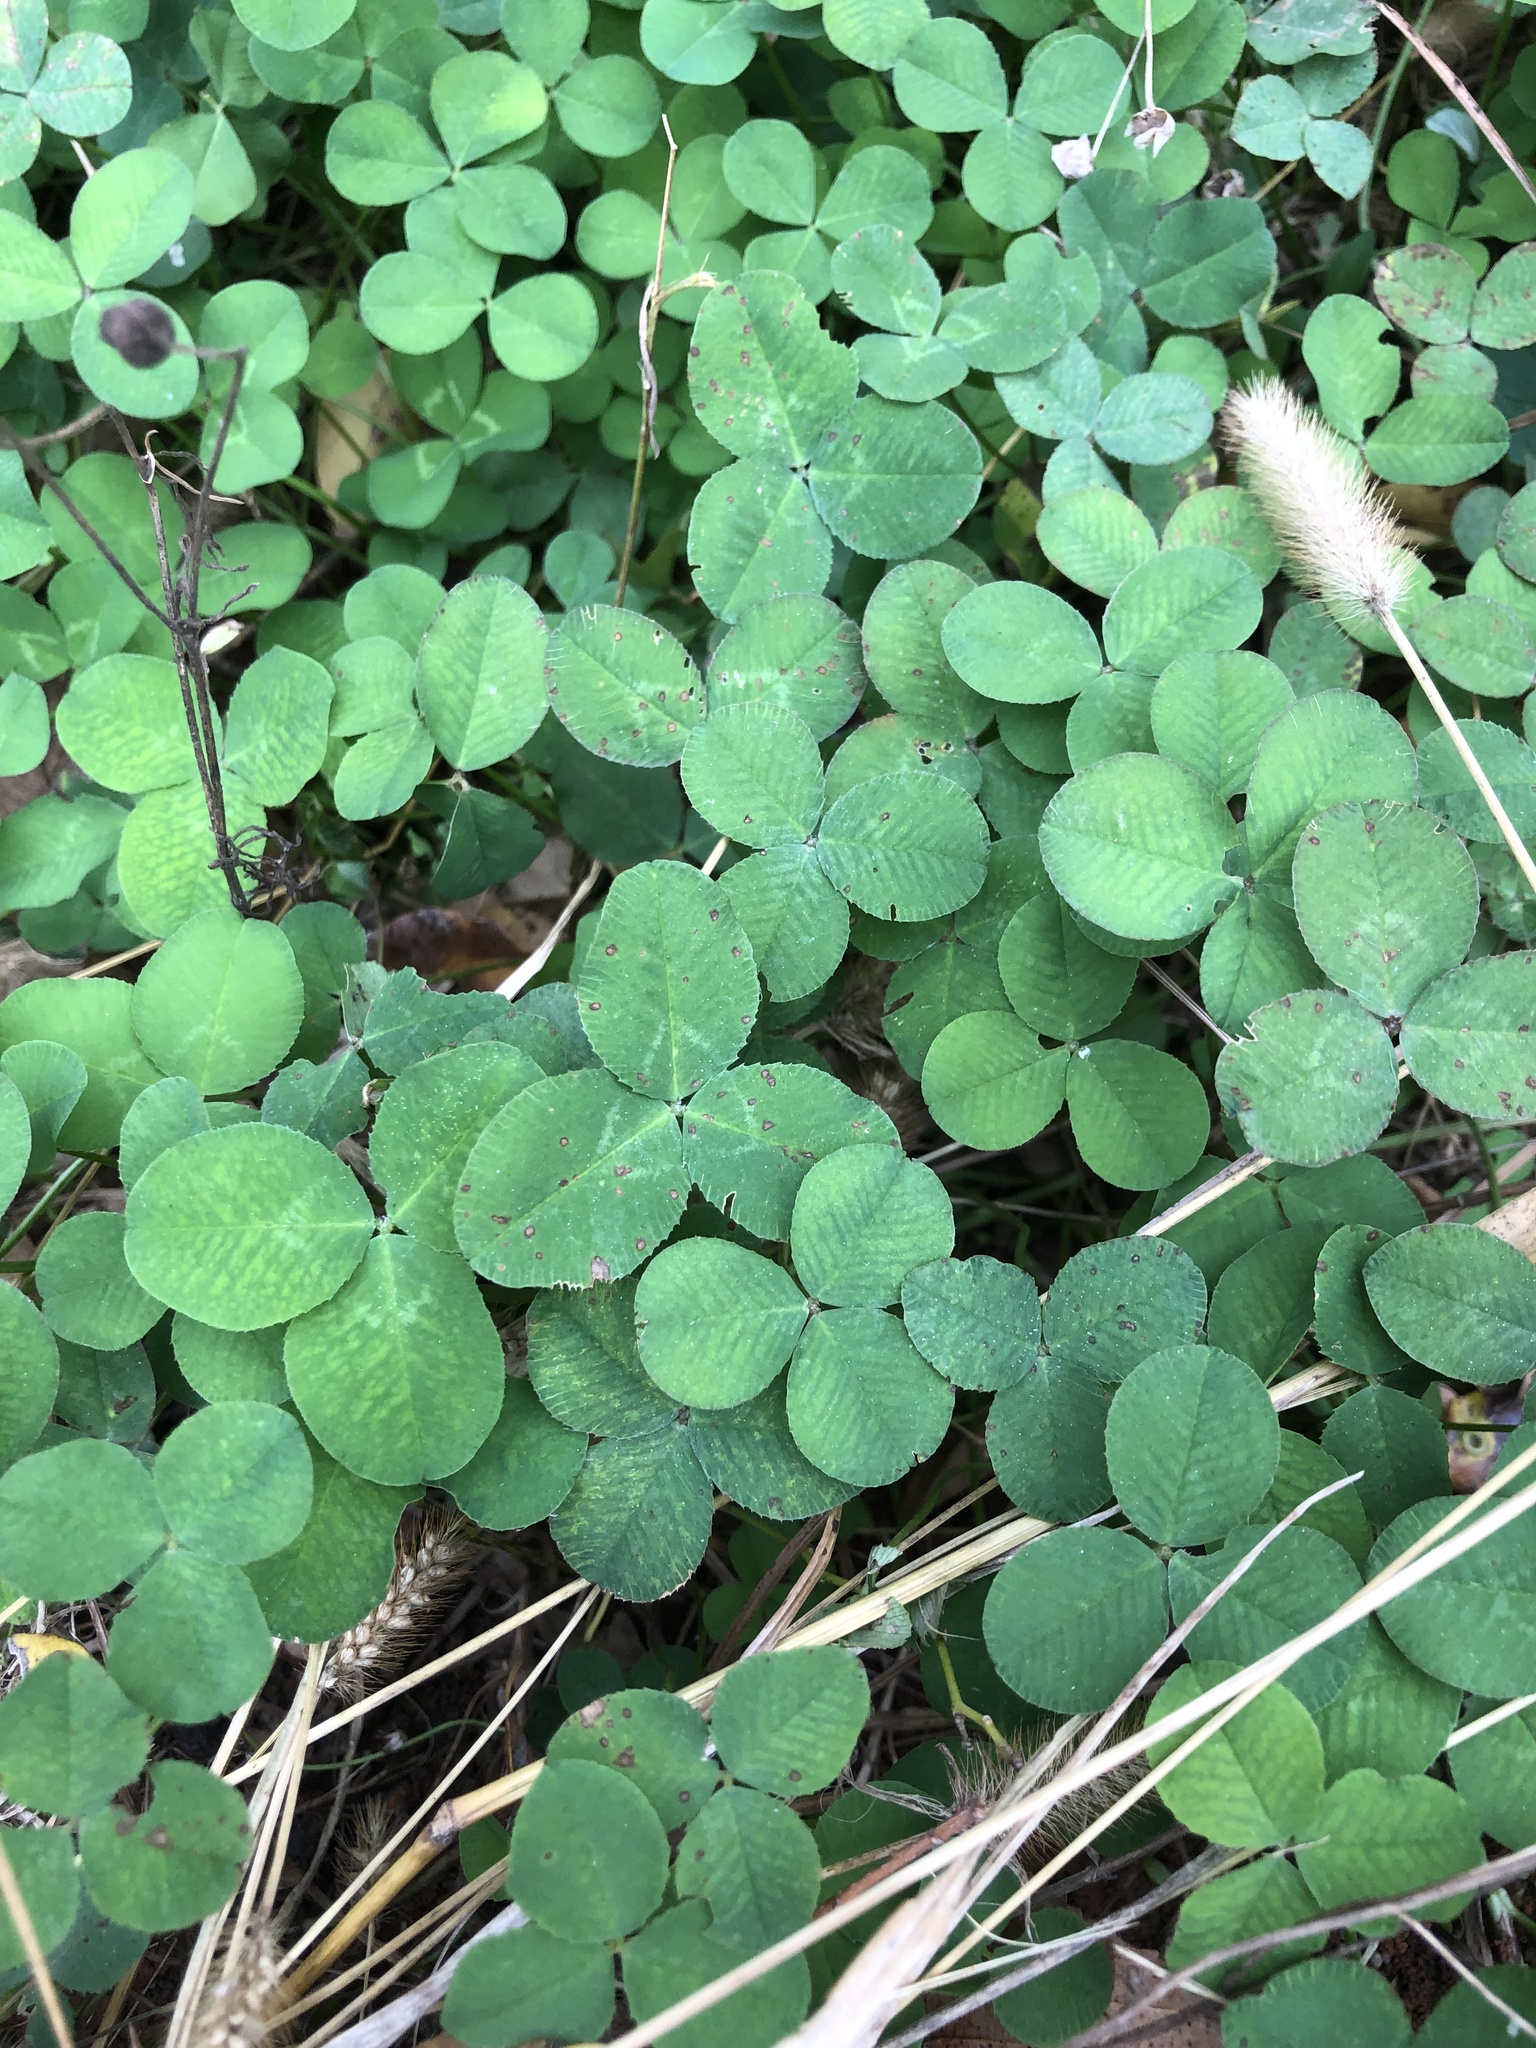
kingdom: Plantae
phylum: Tracheophyta
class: Magnoliopsida
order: Fabales
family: Fabaceae
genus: Trifolium
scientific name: Trifolium repens
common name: White clover
